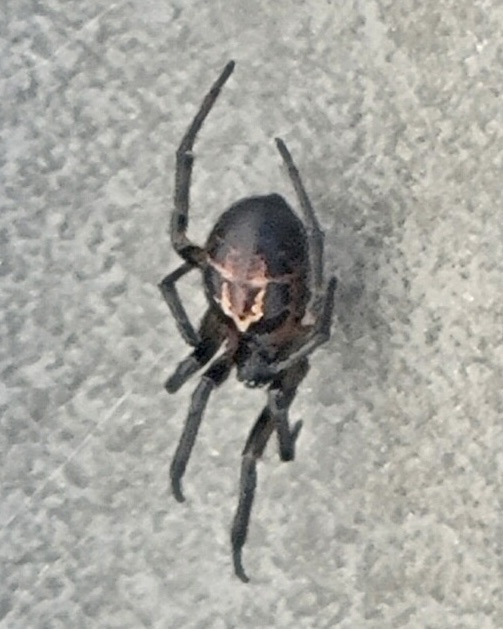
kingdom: Animalia
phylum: Arthropoda
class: Arachnida
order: Araneae
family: Theridiidae
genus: Steatoda
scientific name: Steatoda nobilis
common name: Cobweb weaver
